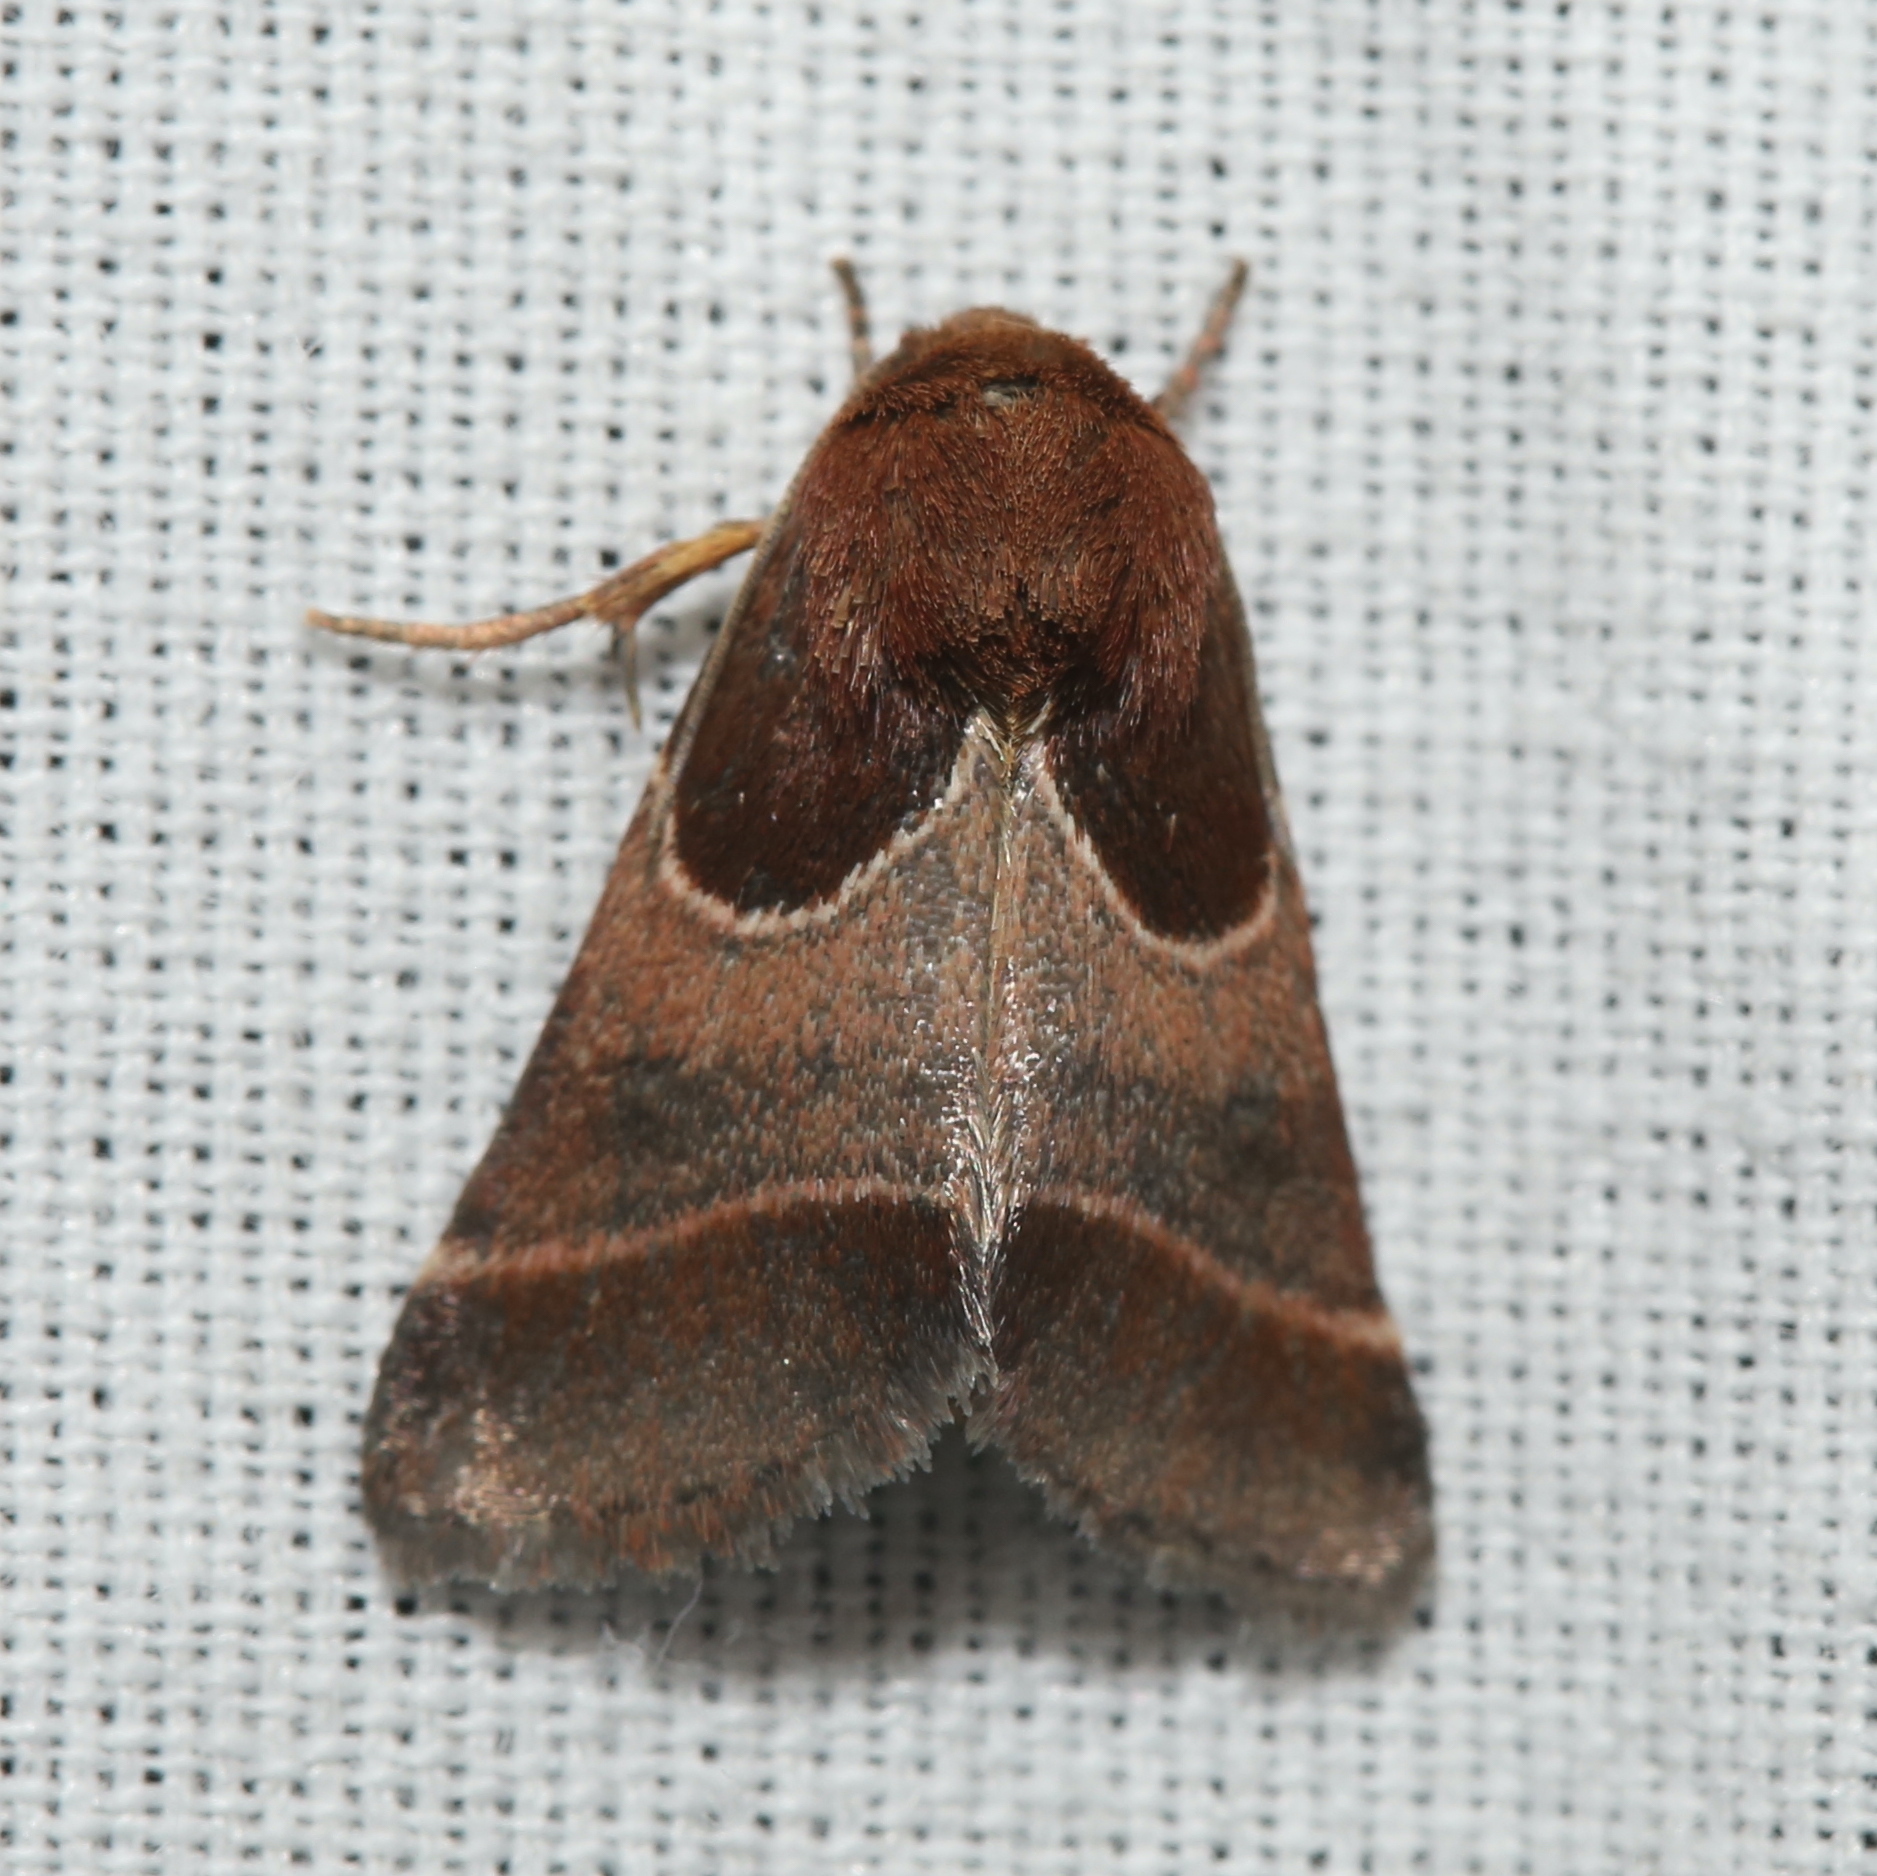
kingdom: Animalia
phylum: Arthropoda
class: Insecta
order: Lepidoptera
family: Noctuidae
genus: Schinia
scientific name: Schinia arcigera
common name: Arcigera flower moth
